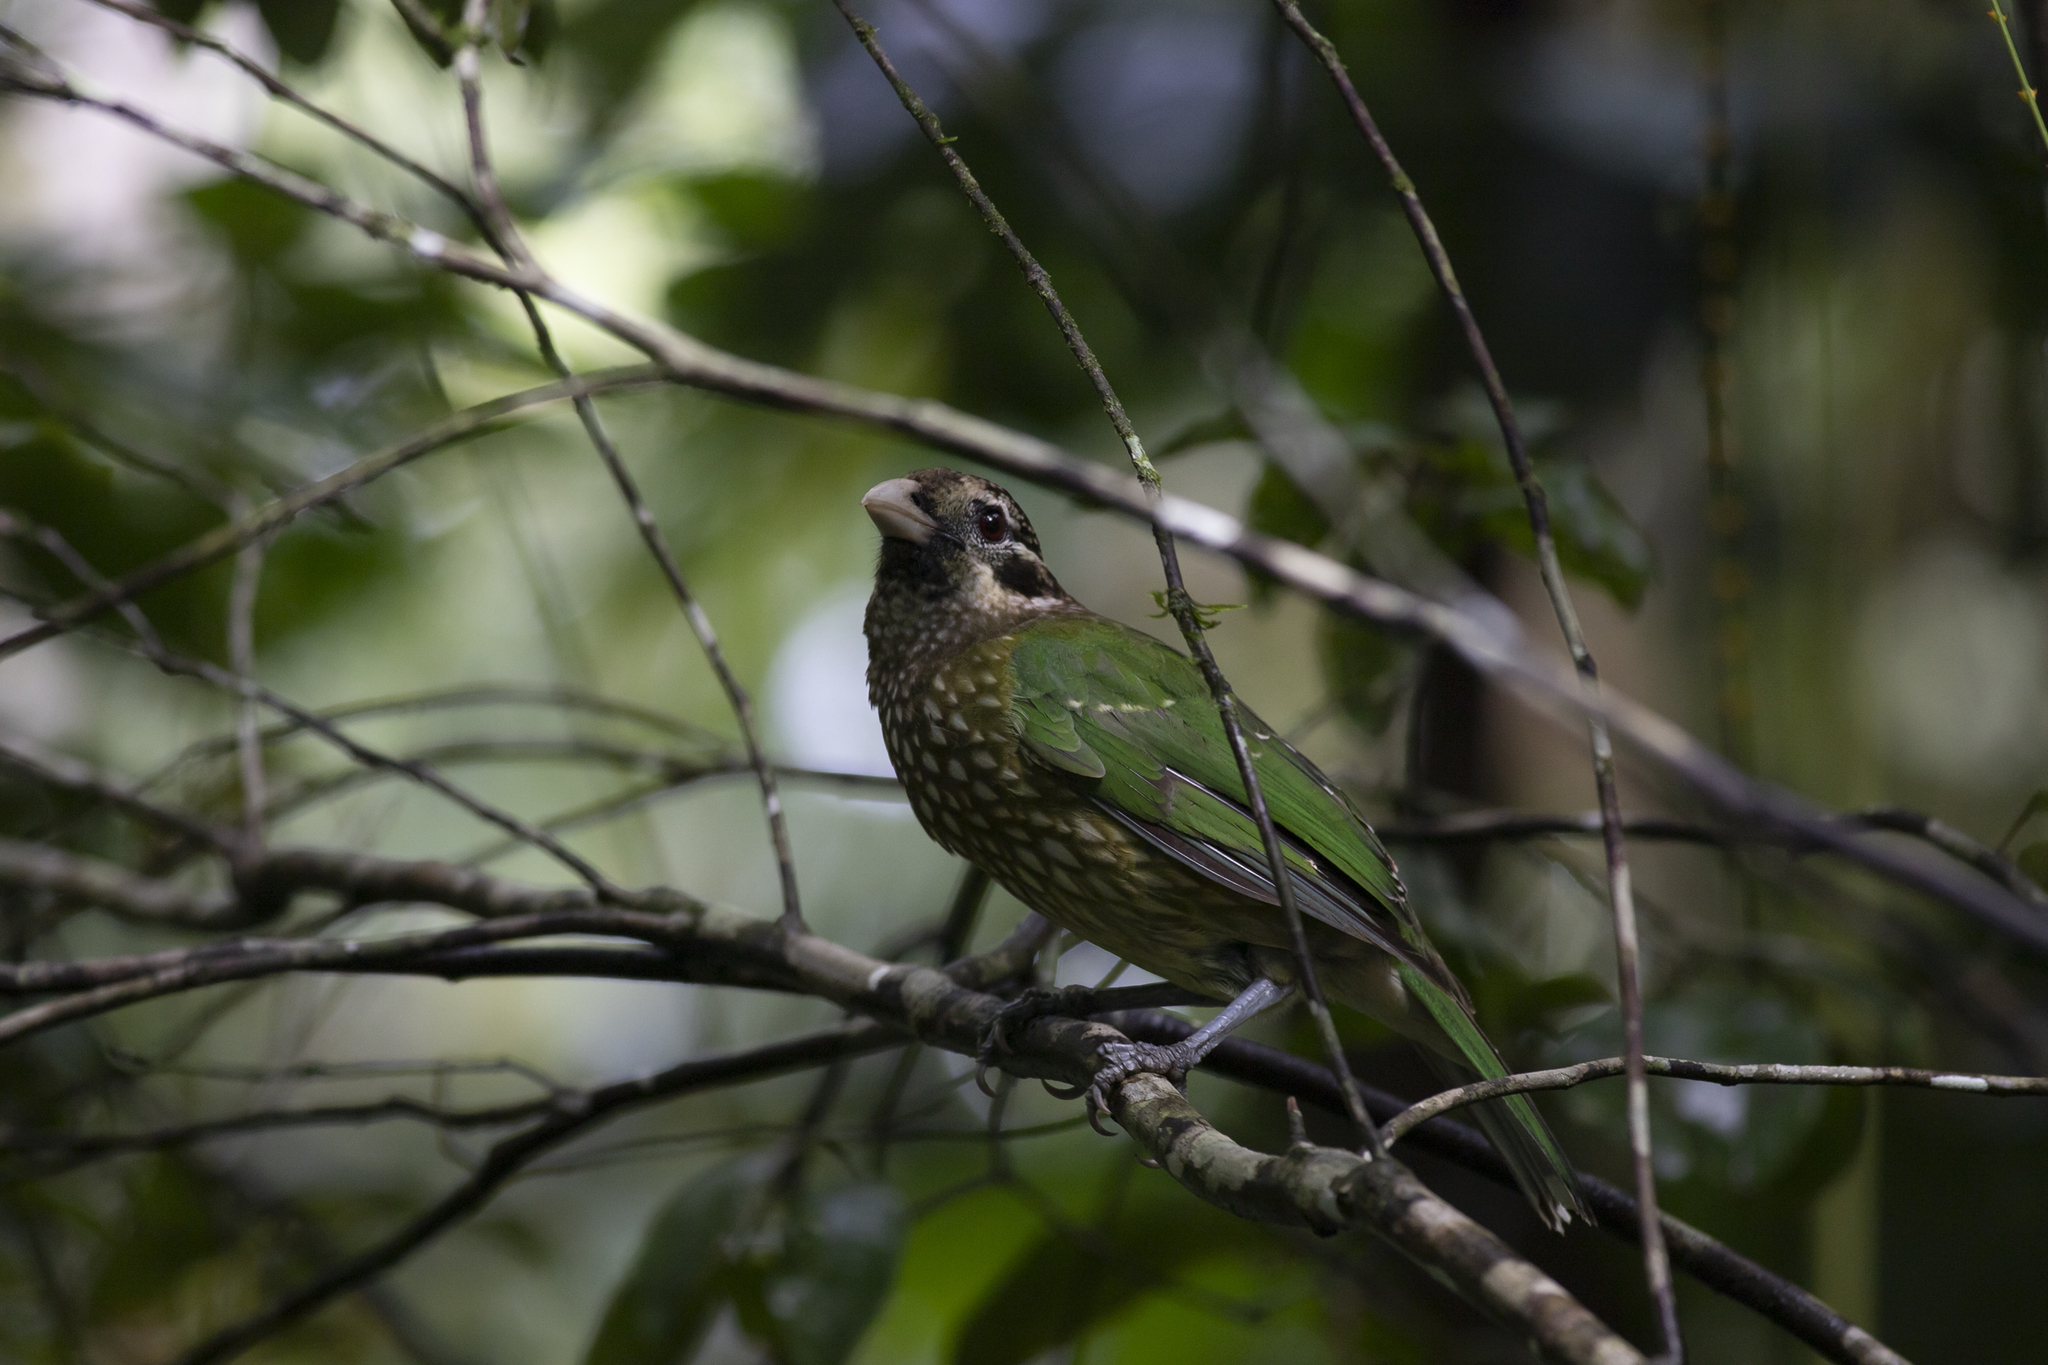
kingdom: Animalia
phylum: Chordata
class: Aves
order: Passeriformes
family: Ptilonorhynchidae
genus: Ailuroedus
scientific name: Ailuroedus maculosus
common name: Spotted catbird
